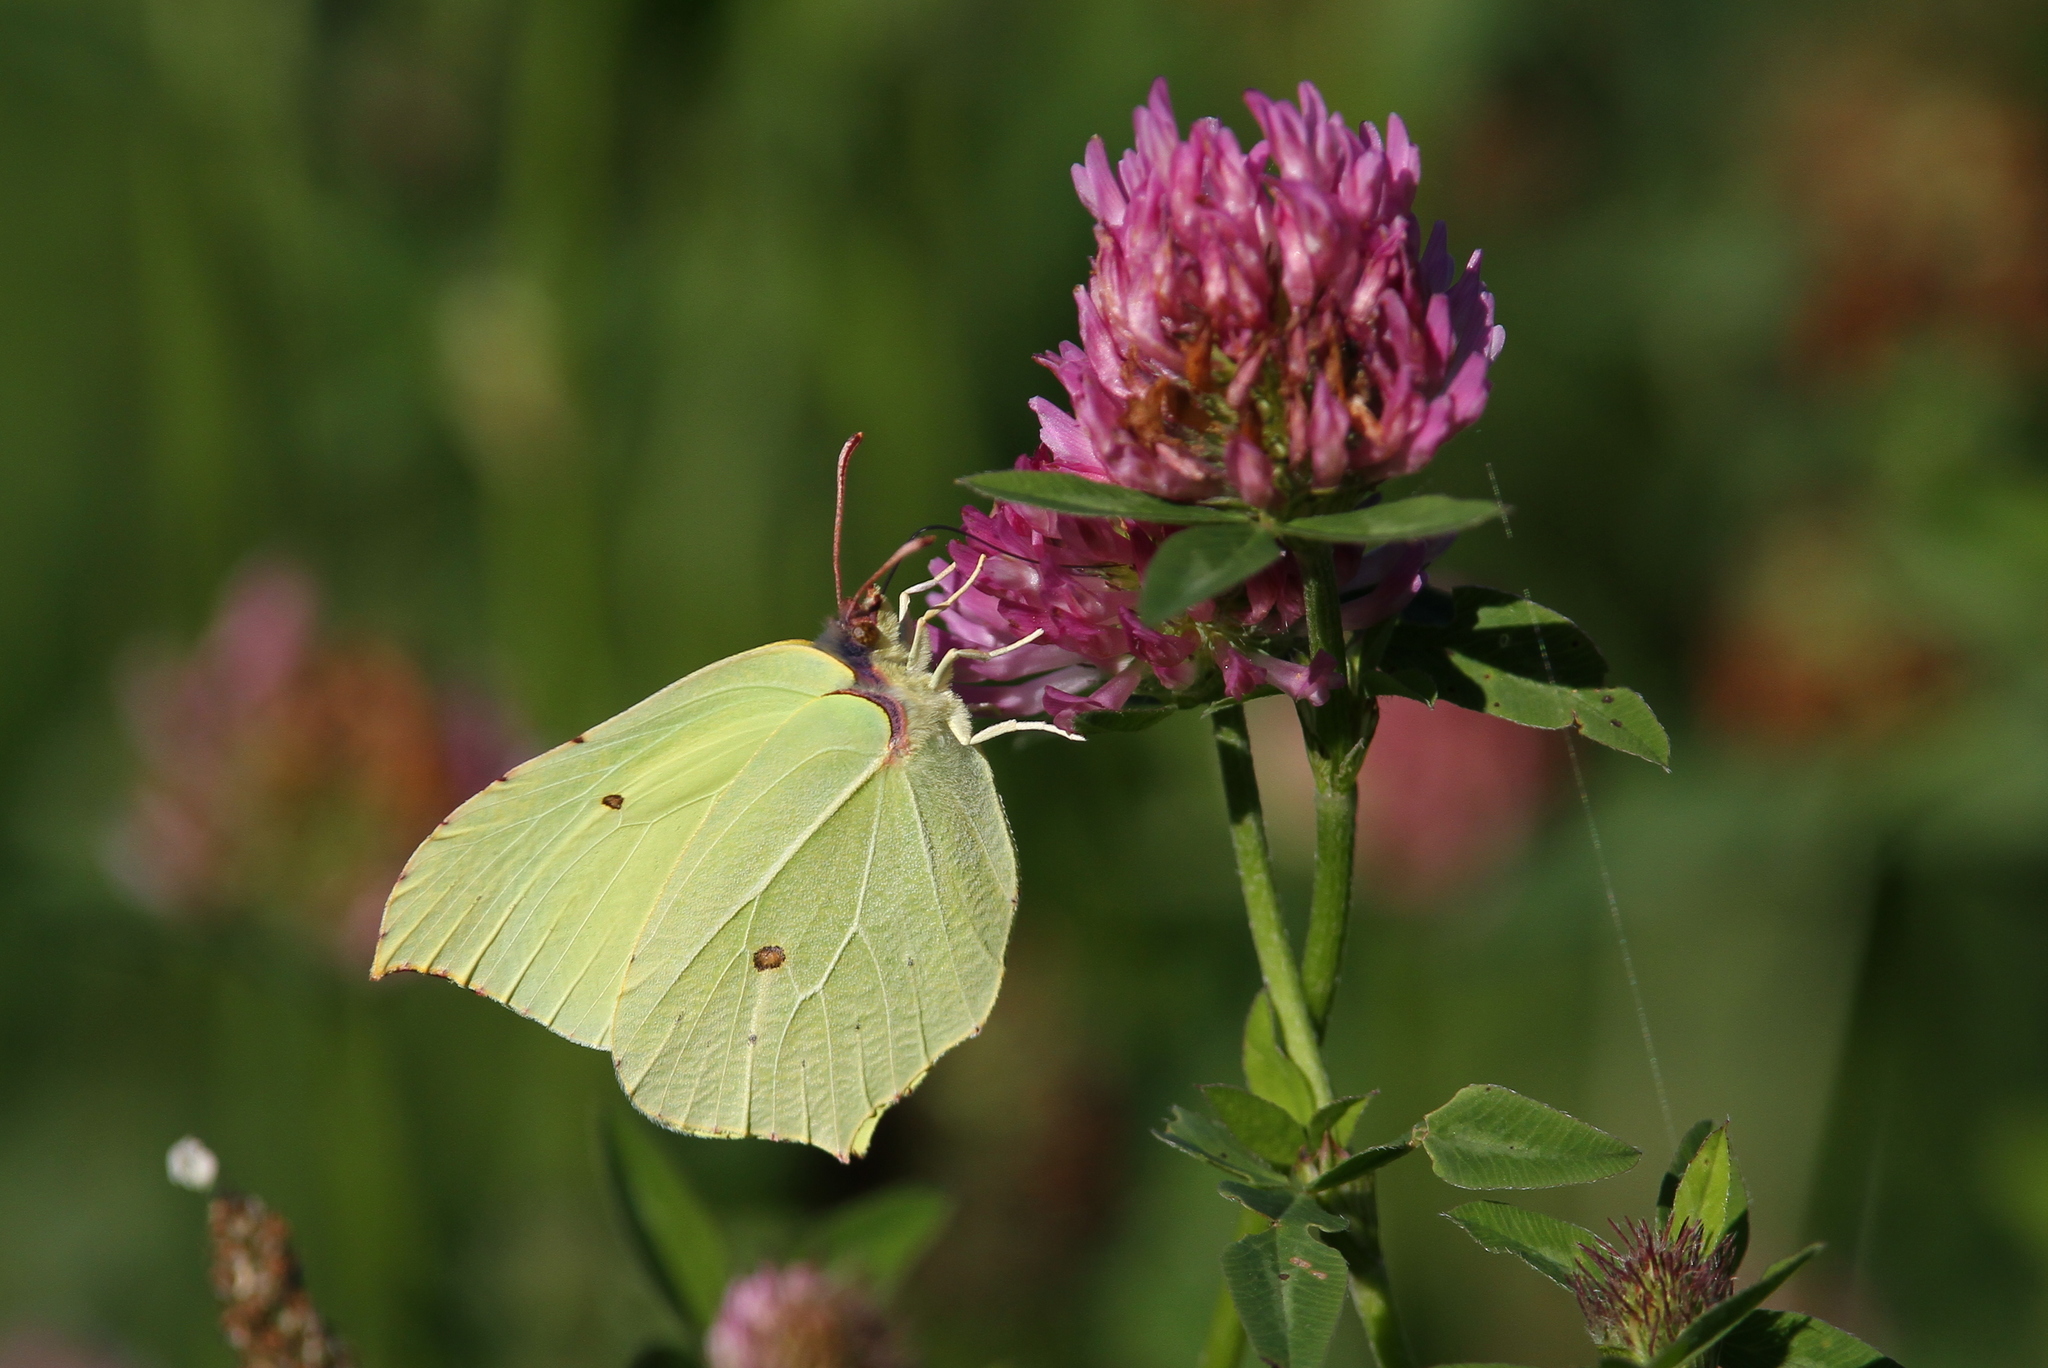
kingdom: Animalia
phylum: Arthropoda
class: Insecta
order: Lepidoptera
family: Pieridae
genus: Gonepteryx
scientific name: Gonepteryx rhamni
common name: Brimstone
